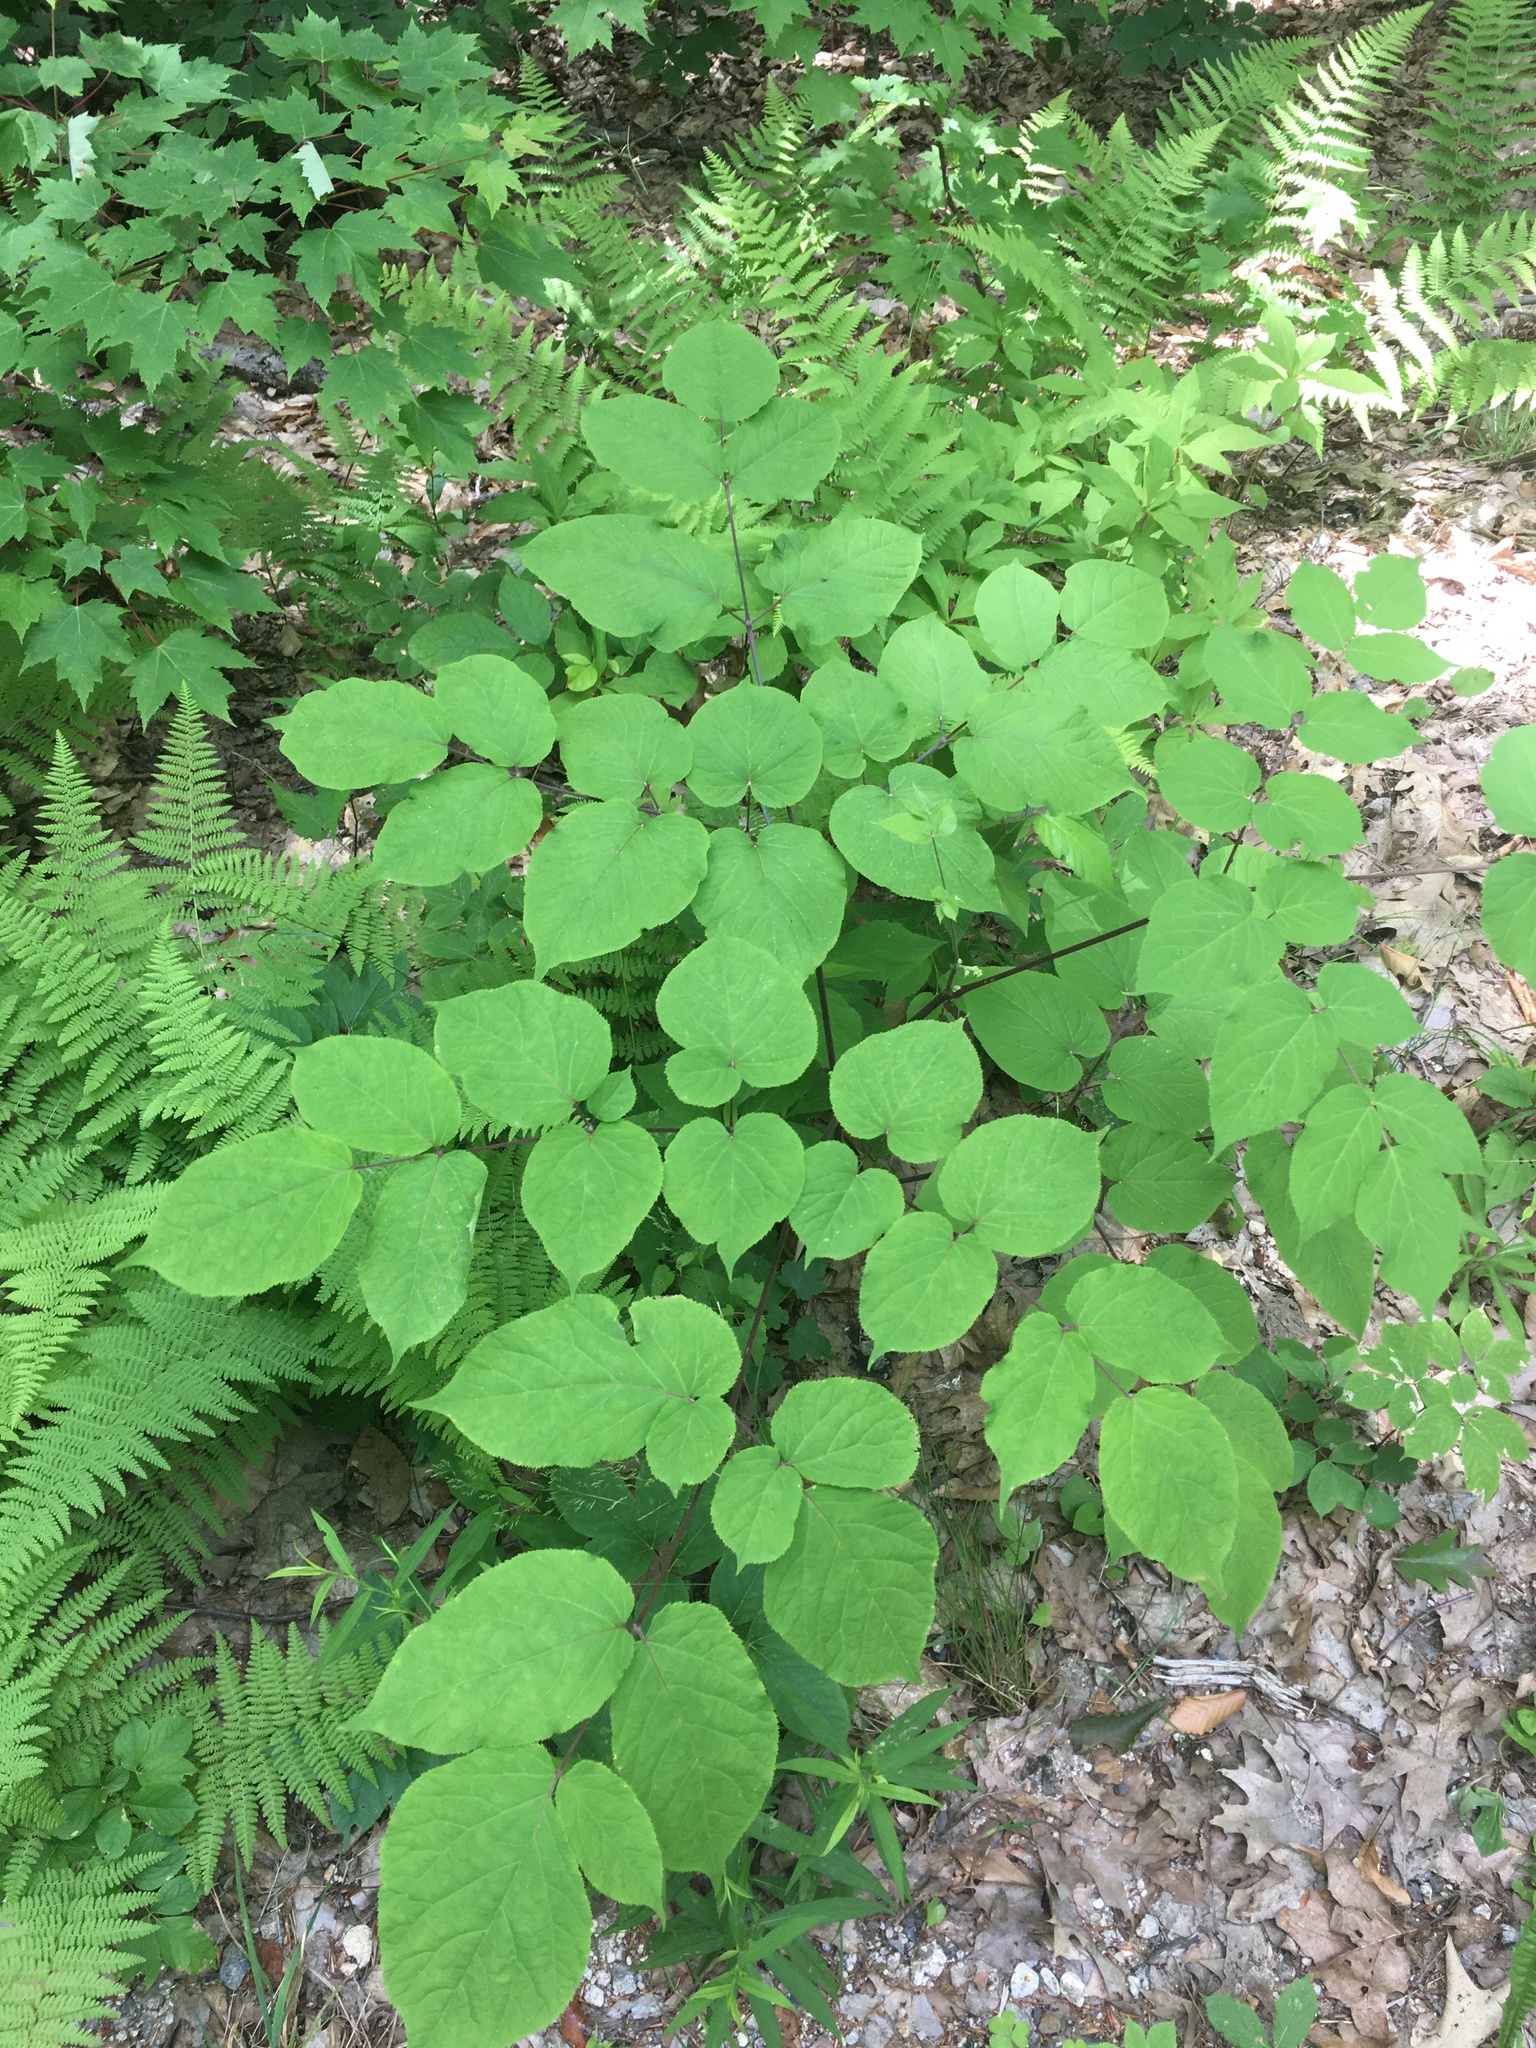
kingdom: Plantae
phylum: Tracheophyta
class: Magnoliopsida
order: Apiales
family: Araliaceae
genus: Aralia
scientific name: Aralia racemosa
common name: American-spikenard
